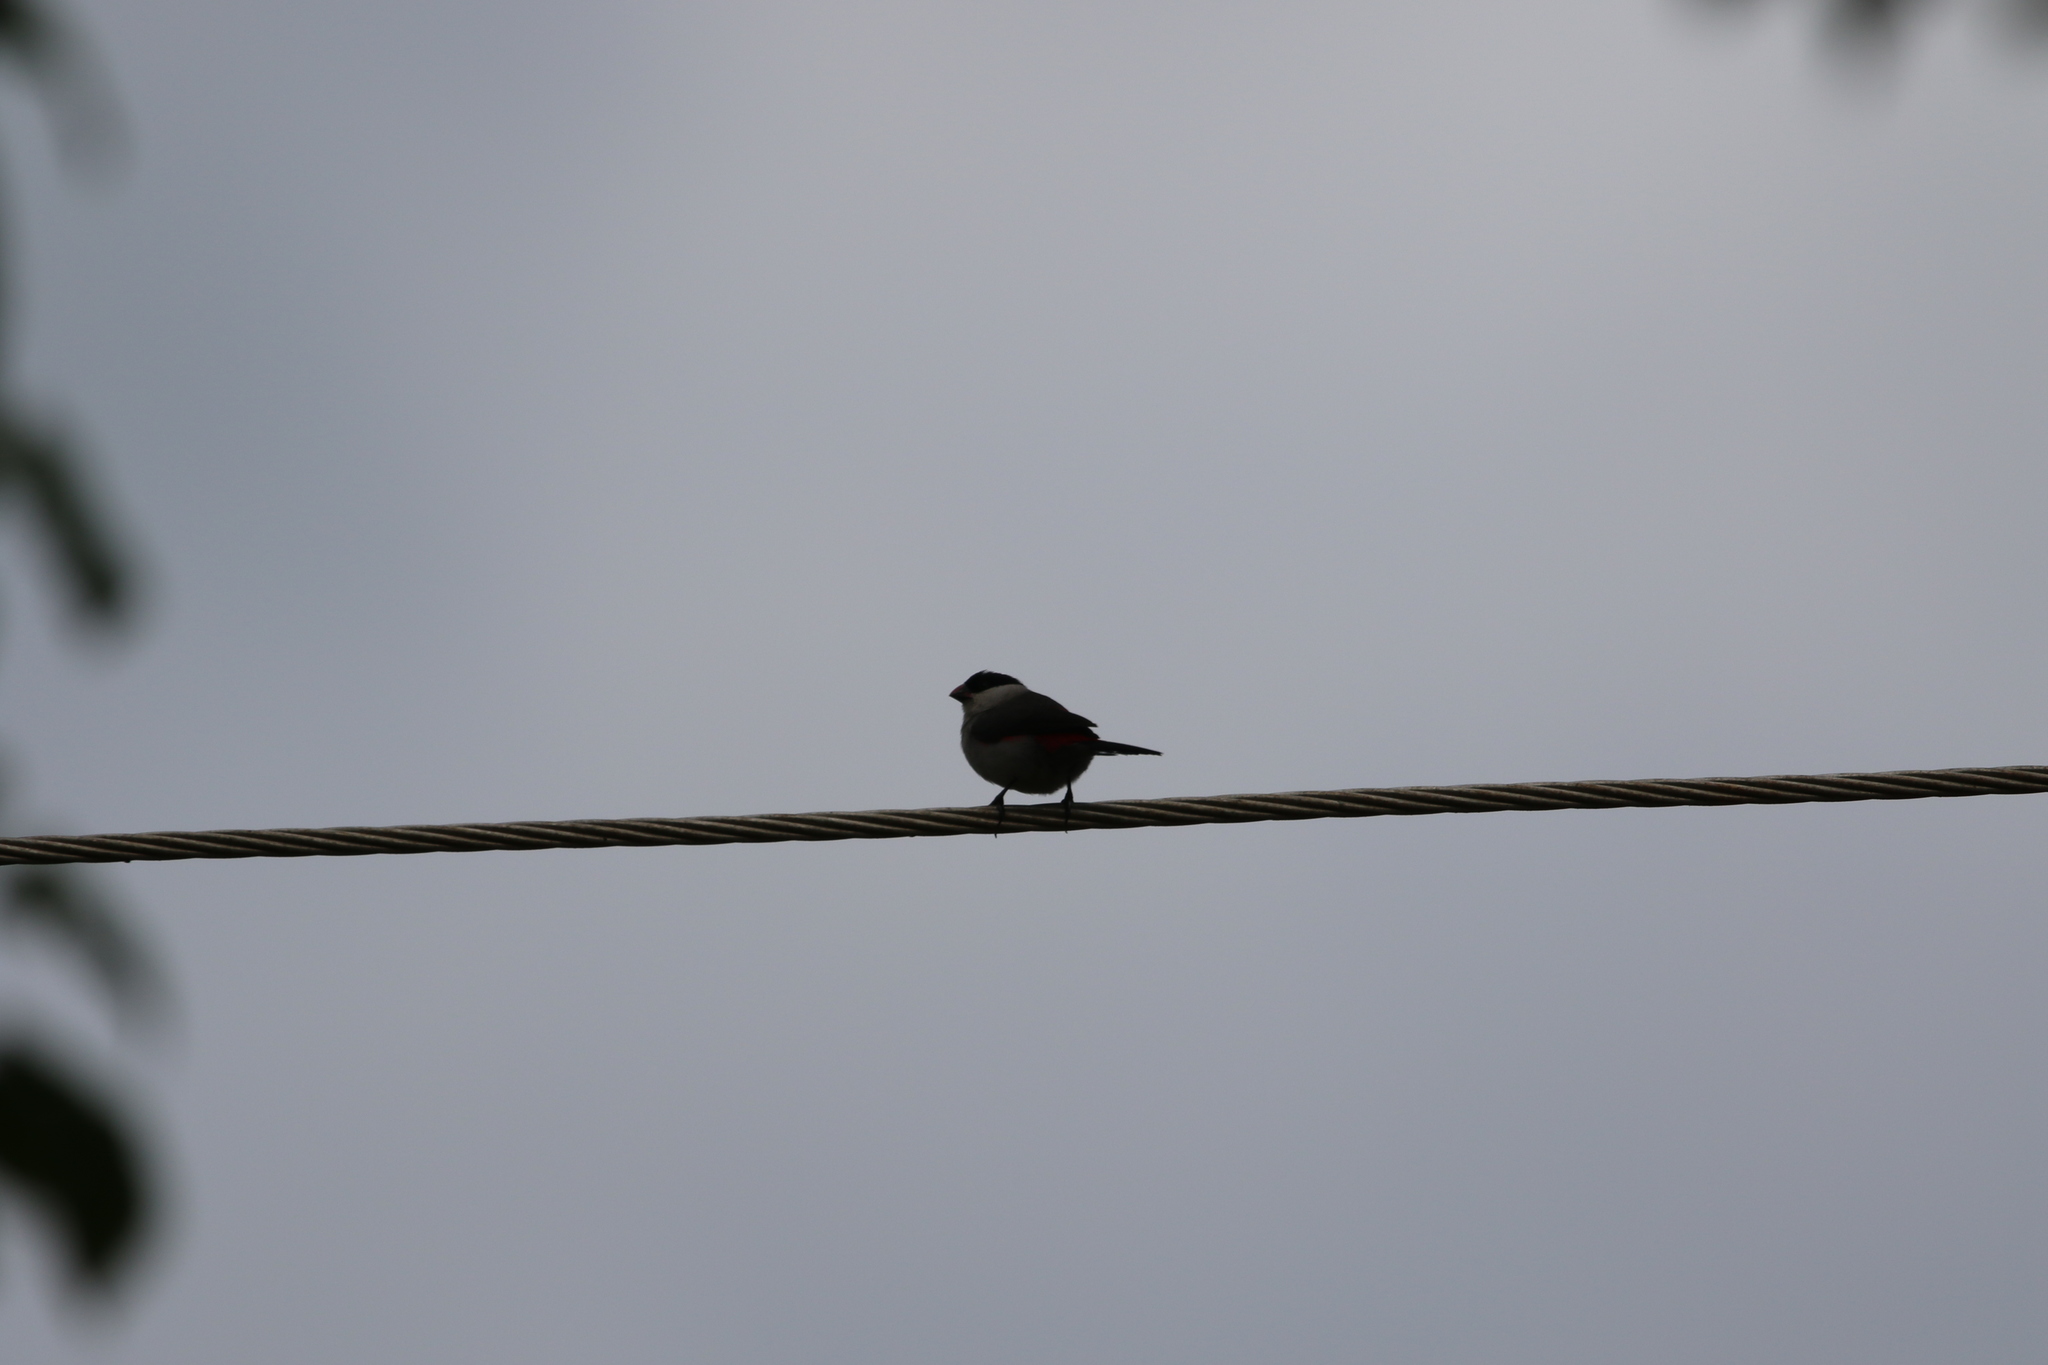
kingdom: Animalia
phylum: Chordata
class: Aves
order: Passeriformes
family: Estrildidae
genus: Estrilda
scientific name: Estrilda nonnula
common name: Black-crowned waxbill
